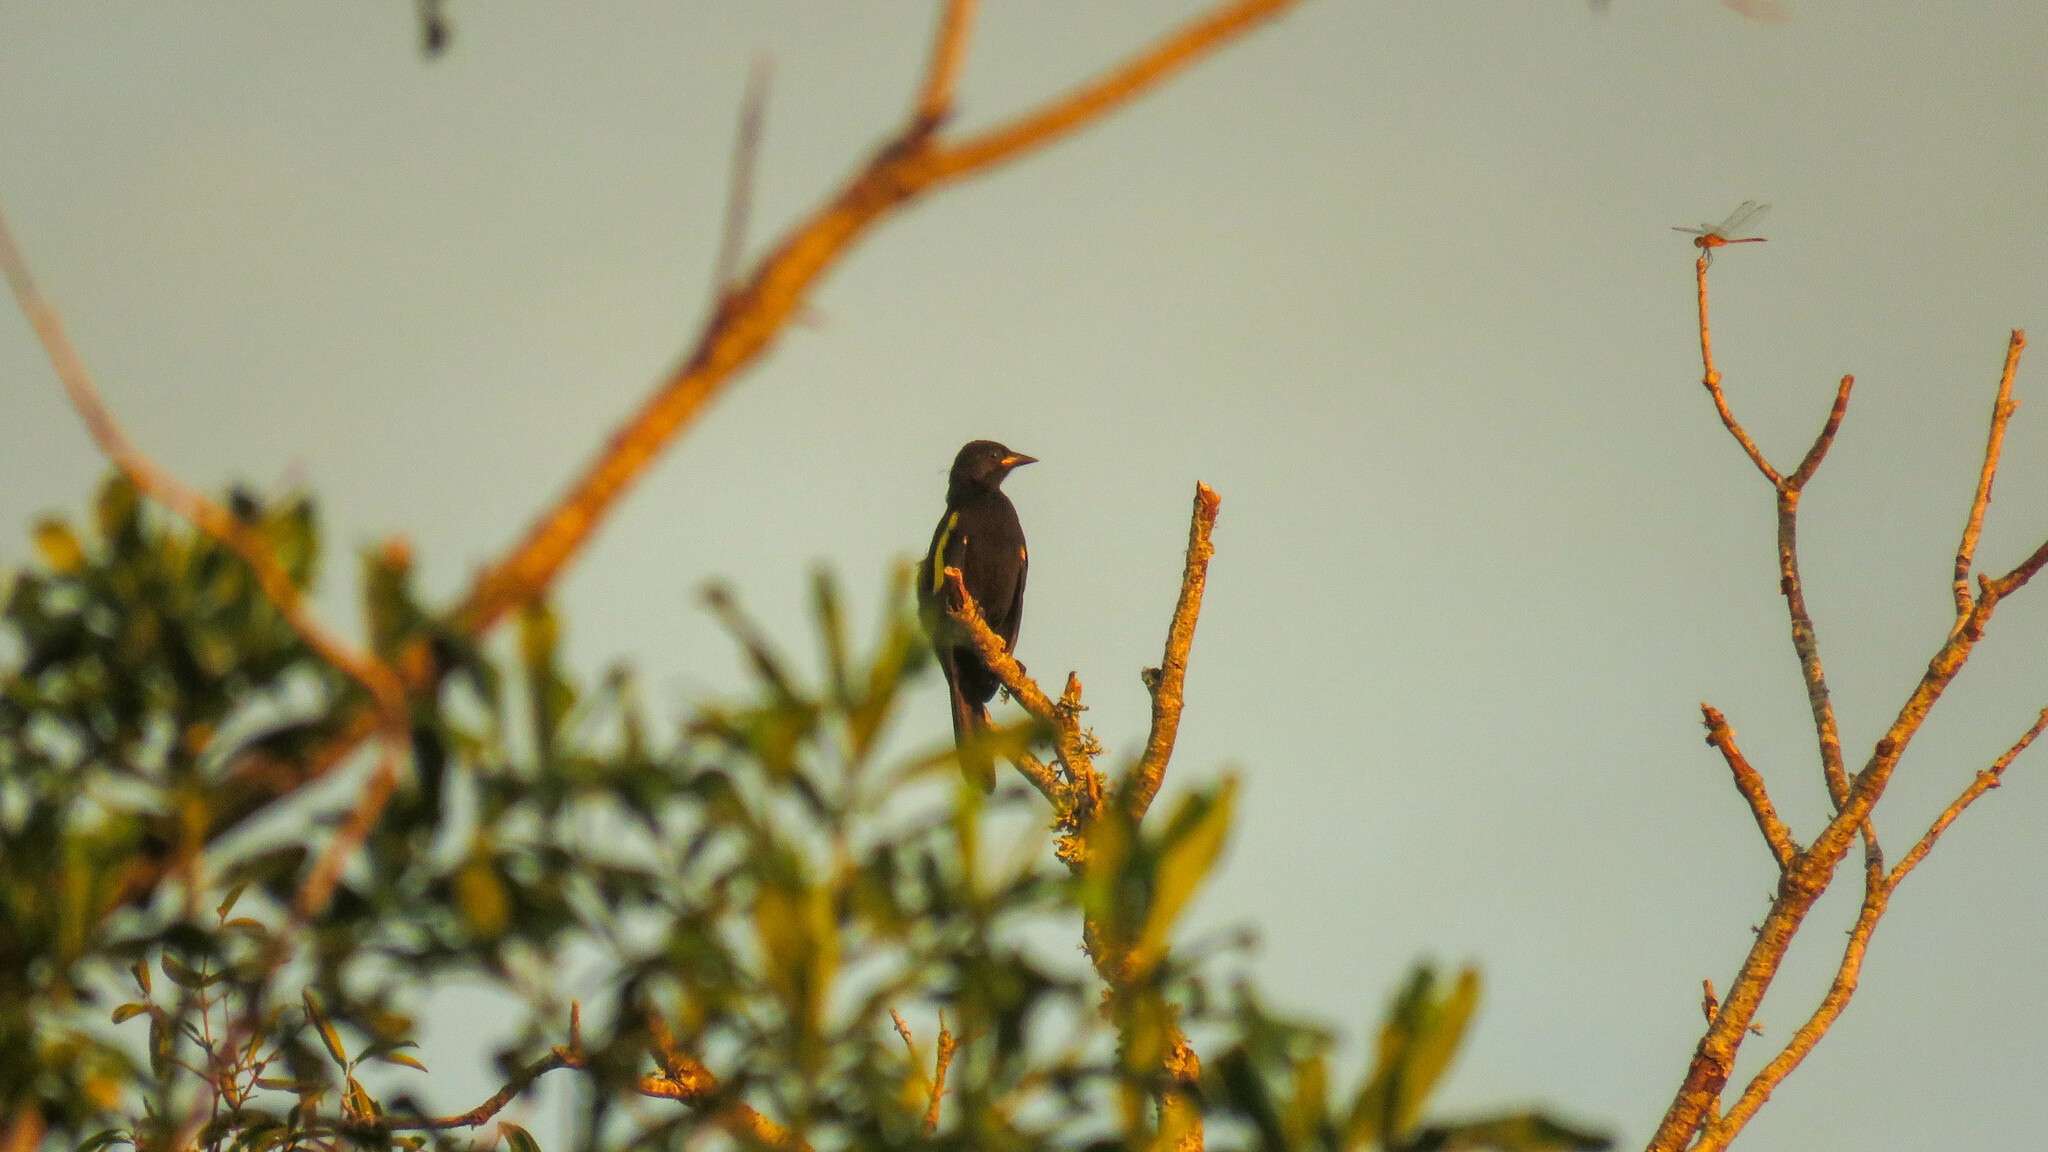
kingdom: Animalia
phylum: Chordata
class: Aves
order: Passeriformes
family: Icteridae
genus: Cacicus
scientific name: Cacicus chrysopterus
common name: Golden-winged cacique
